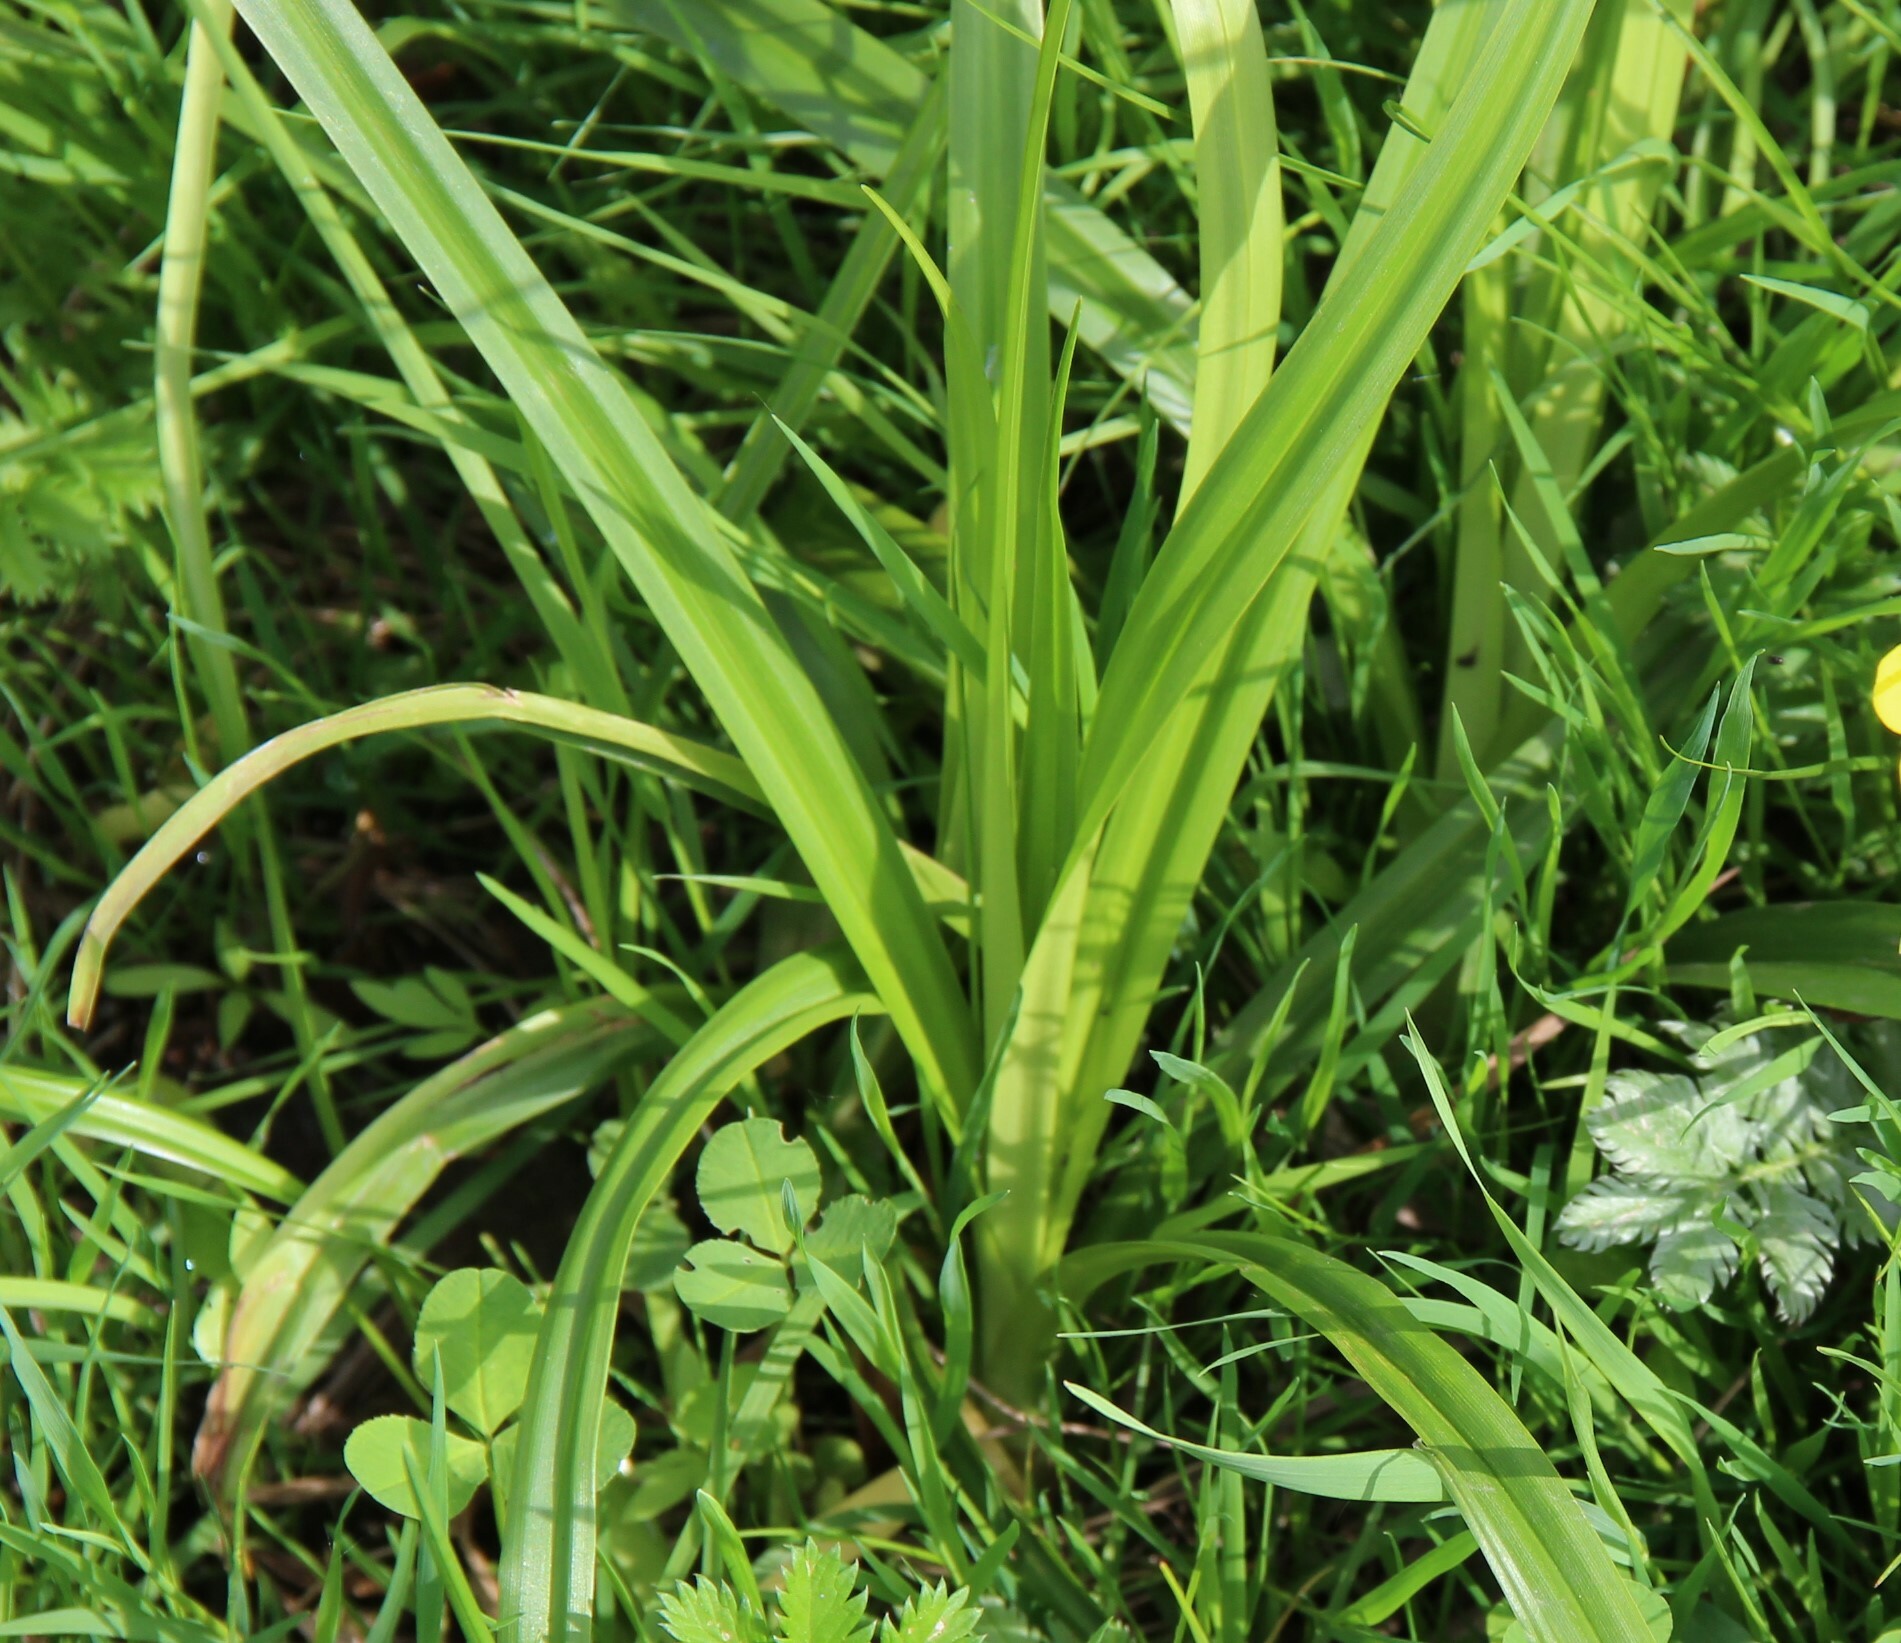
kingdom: Plantae
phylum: Tracheophyta
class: Liliopsida
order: Poales
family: Cyperaceae
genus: Scirpus
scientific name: Scirpus sylvaticus
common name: Wood club-rush
